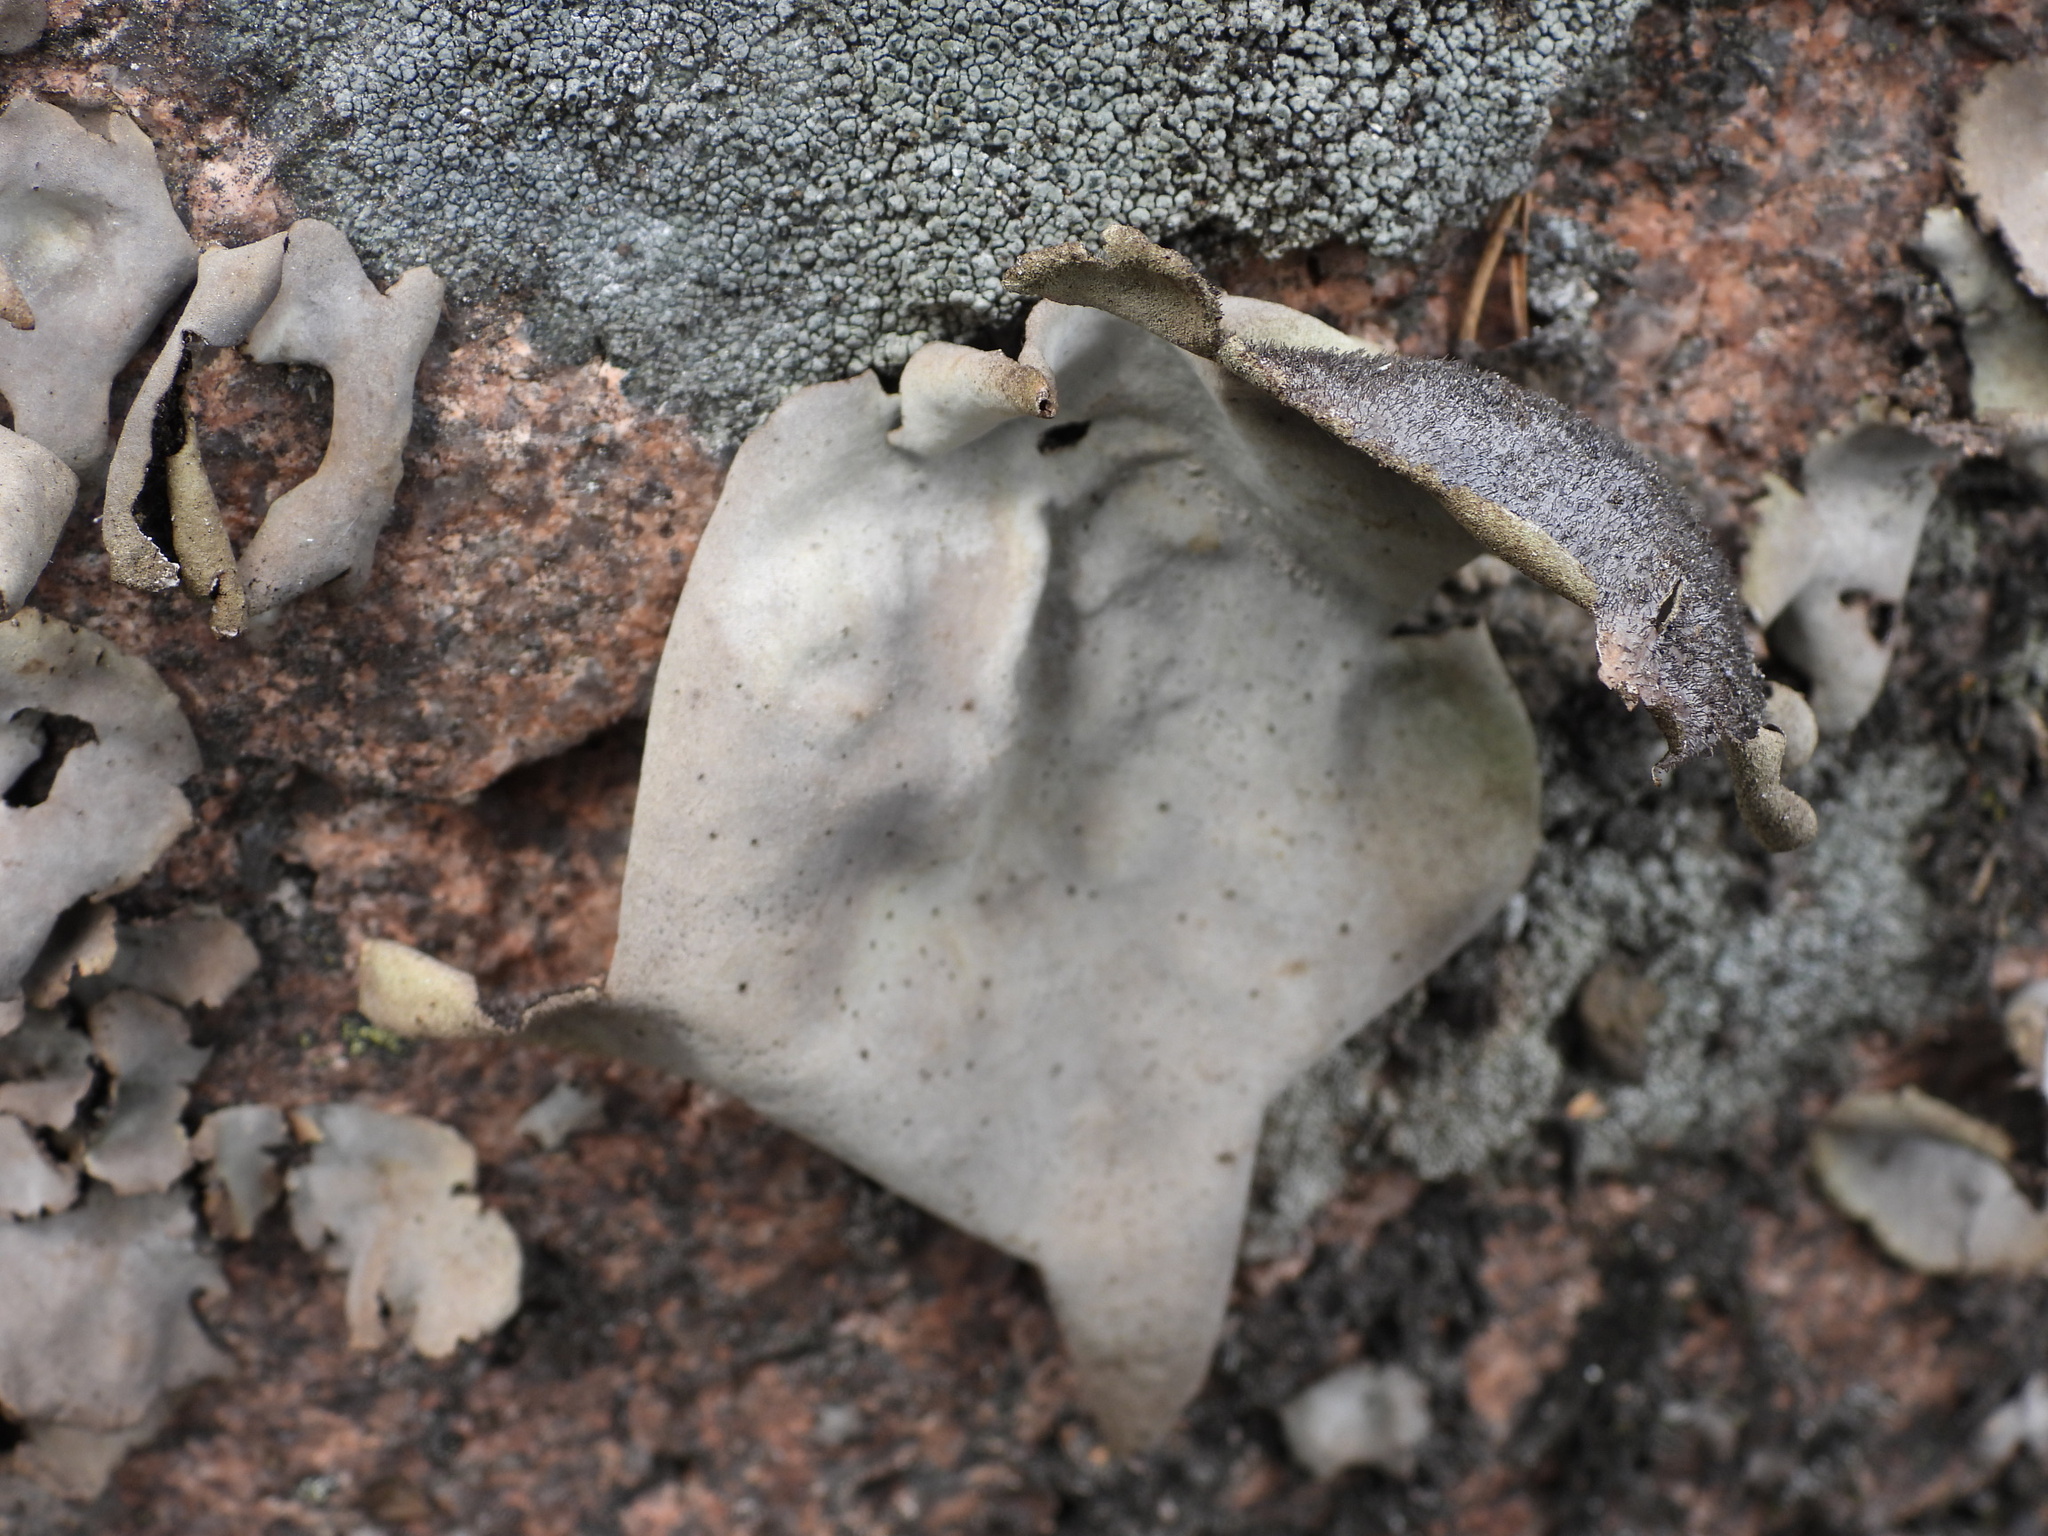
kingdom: Fungi
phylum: Ascomycota
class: Lecanoromycetes
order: Umbilicariales
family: Umbilicariaceae
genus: Umbilicaria
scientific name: Umbilicaria hirsuta
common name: Granulating rocktripe lichen
